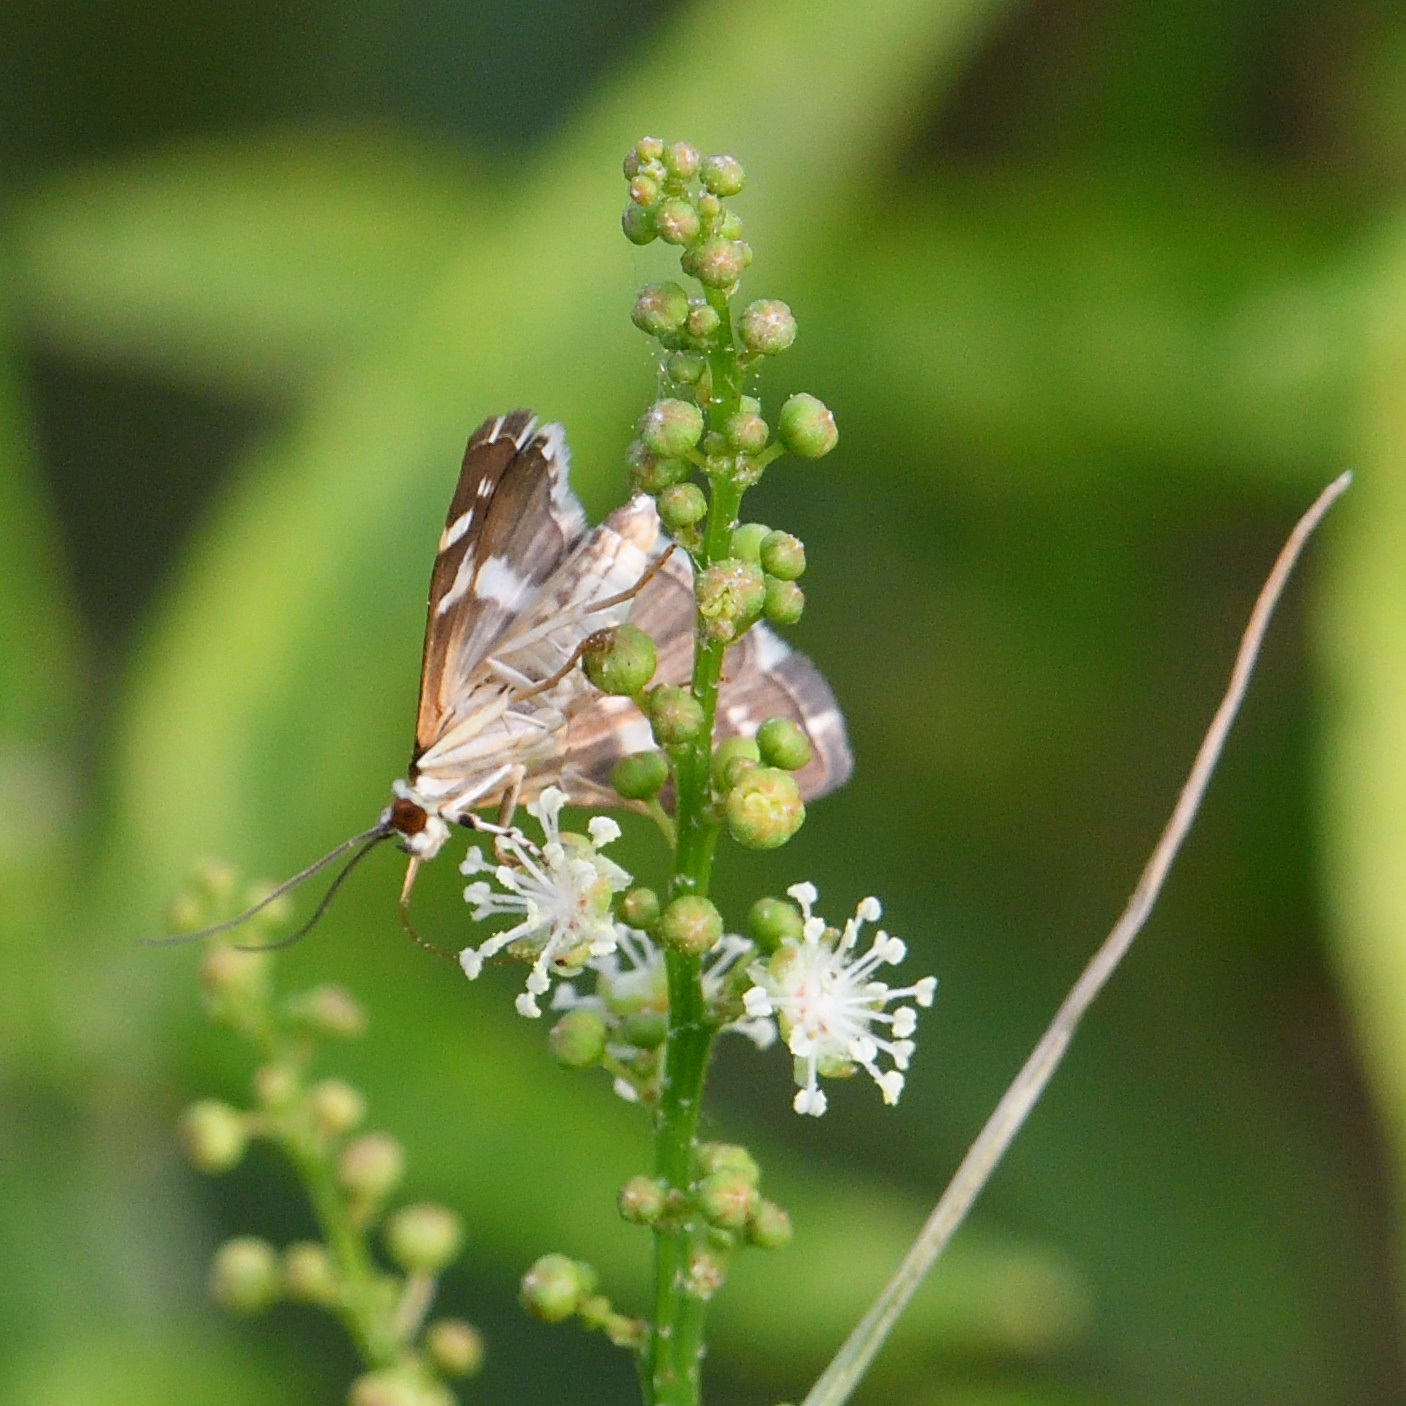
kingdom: Animalia
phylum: Arthropoda
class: Insecta
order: Lepidoptera
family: Crambidae
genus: Spoladea
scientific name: Spoladea recurvalis
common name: Beet webworm moth
